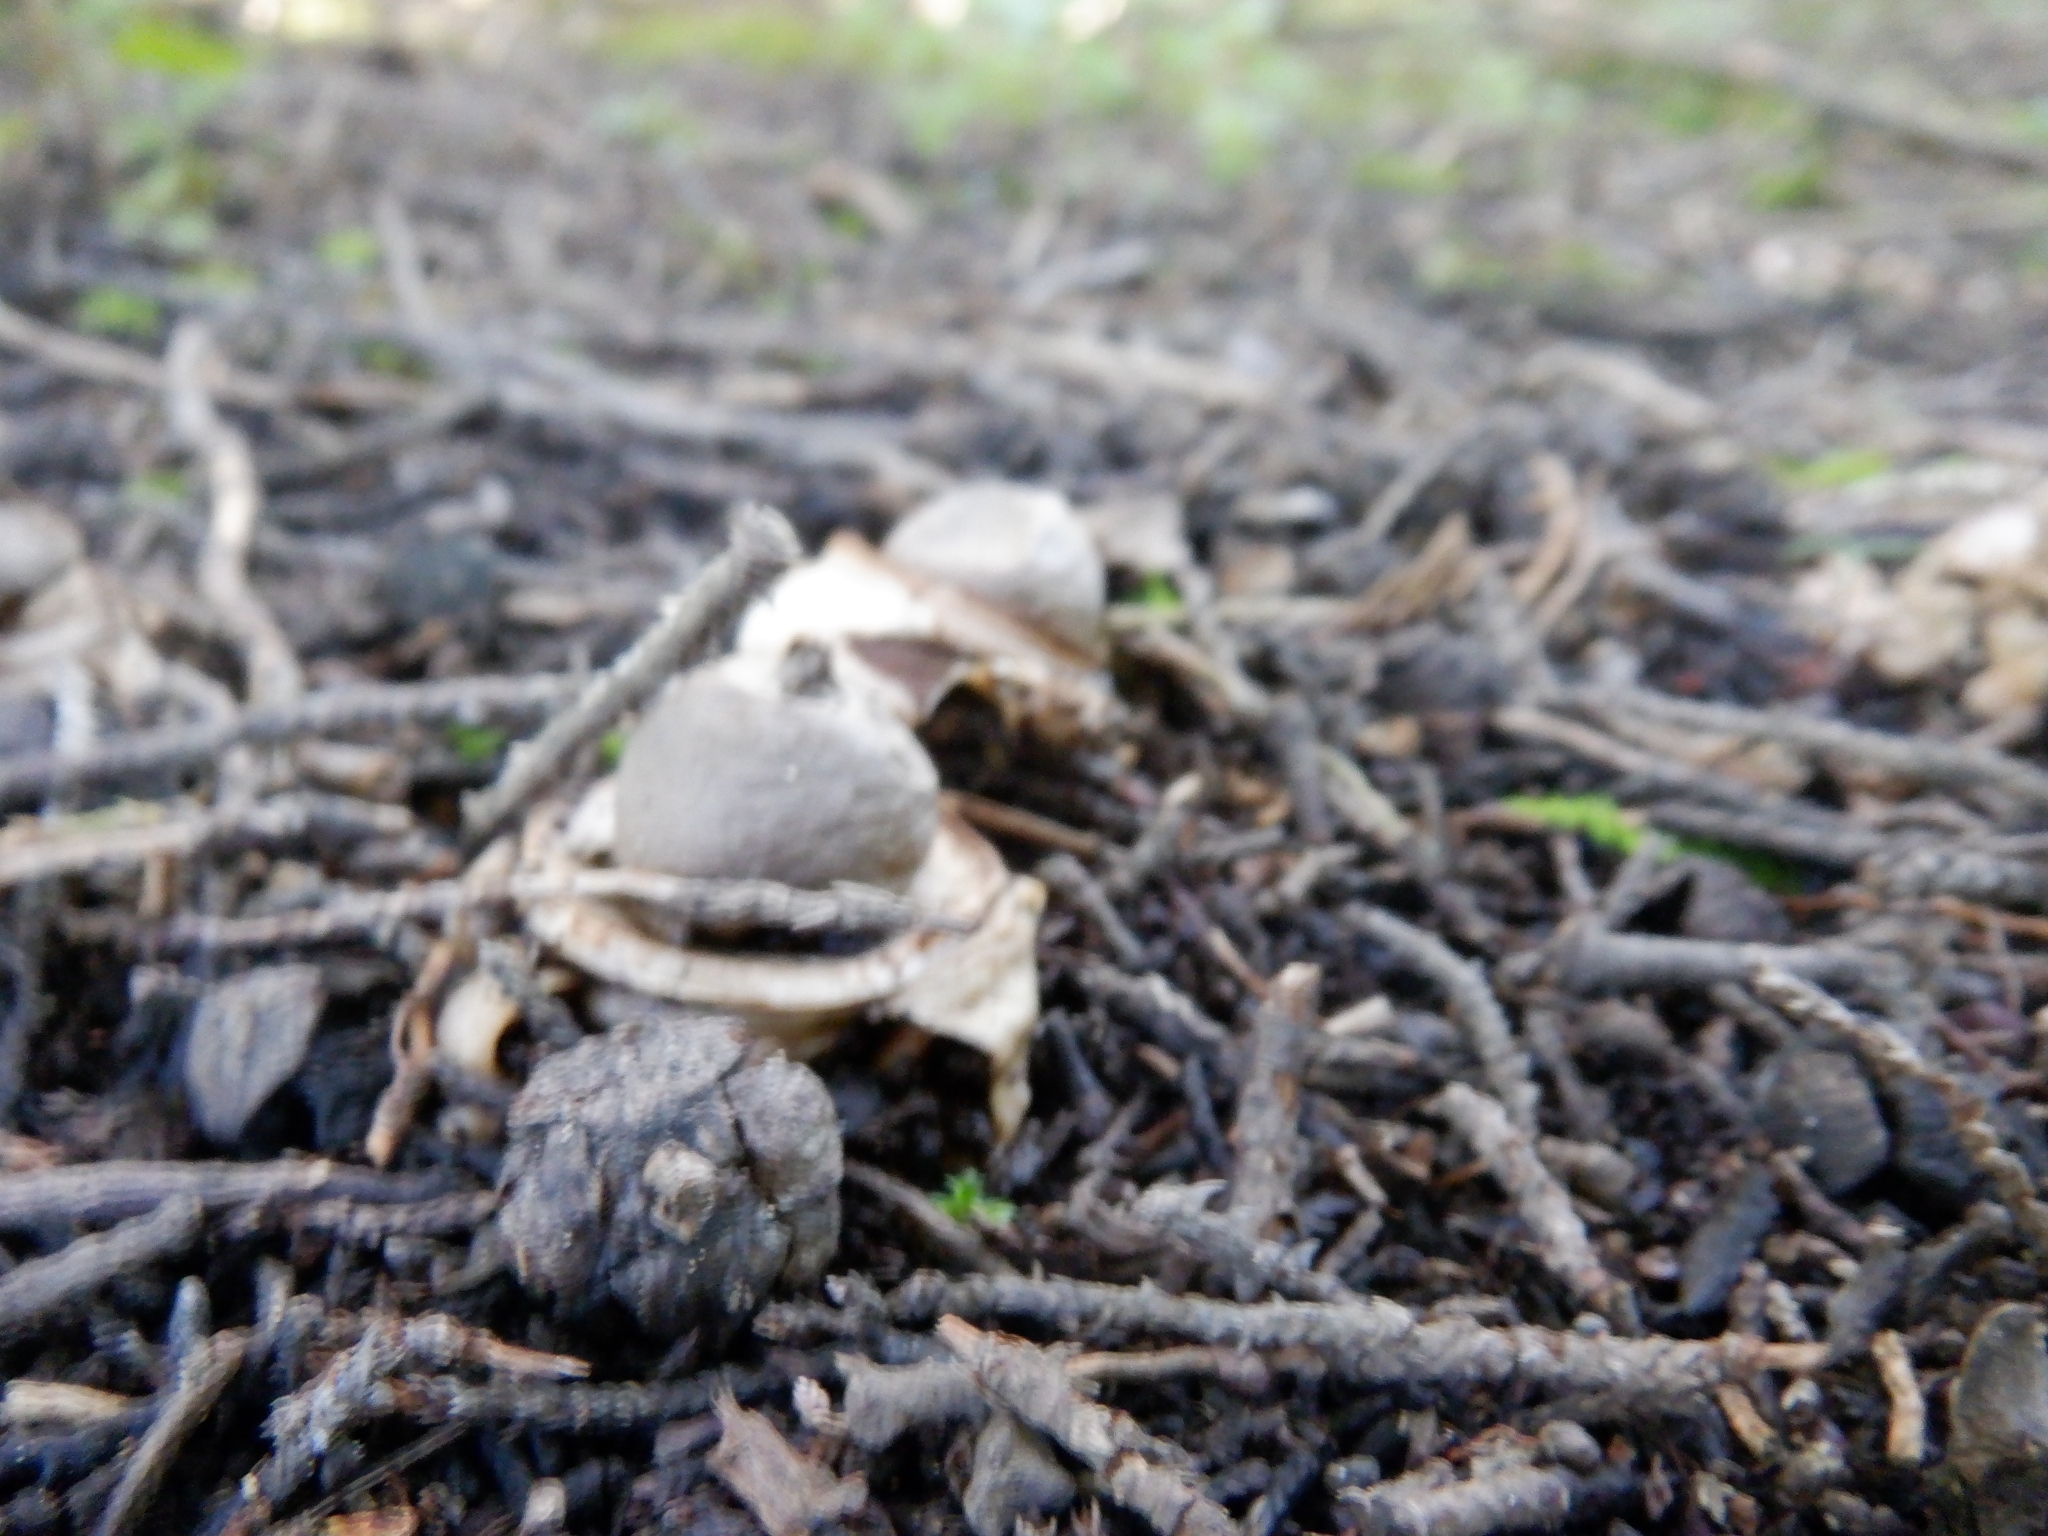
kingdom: Fungi
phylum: Basidiomycota
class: Agaricomycetes
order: Geastrales
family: Geastraceae
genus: Geastrum
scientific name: Geastrum triplex
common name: Collared earthstar
